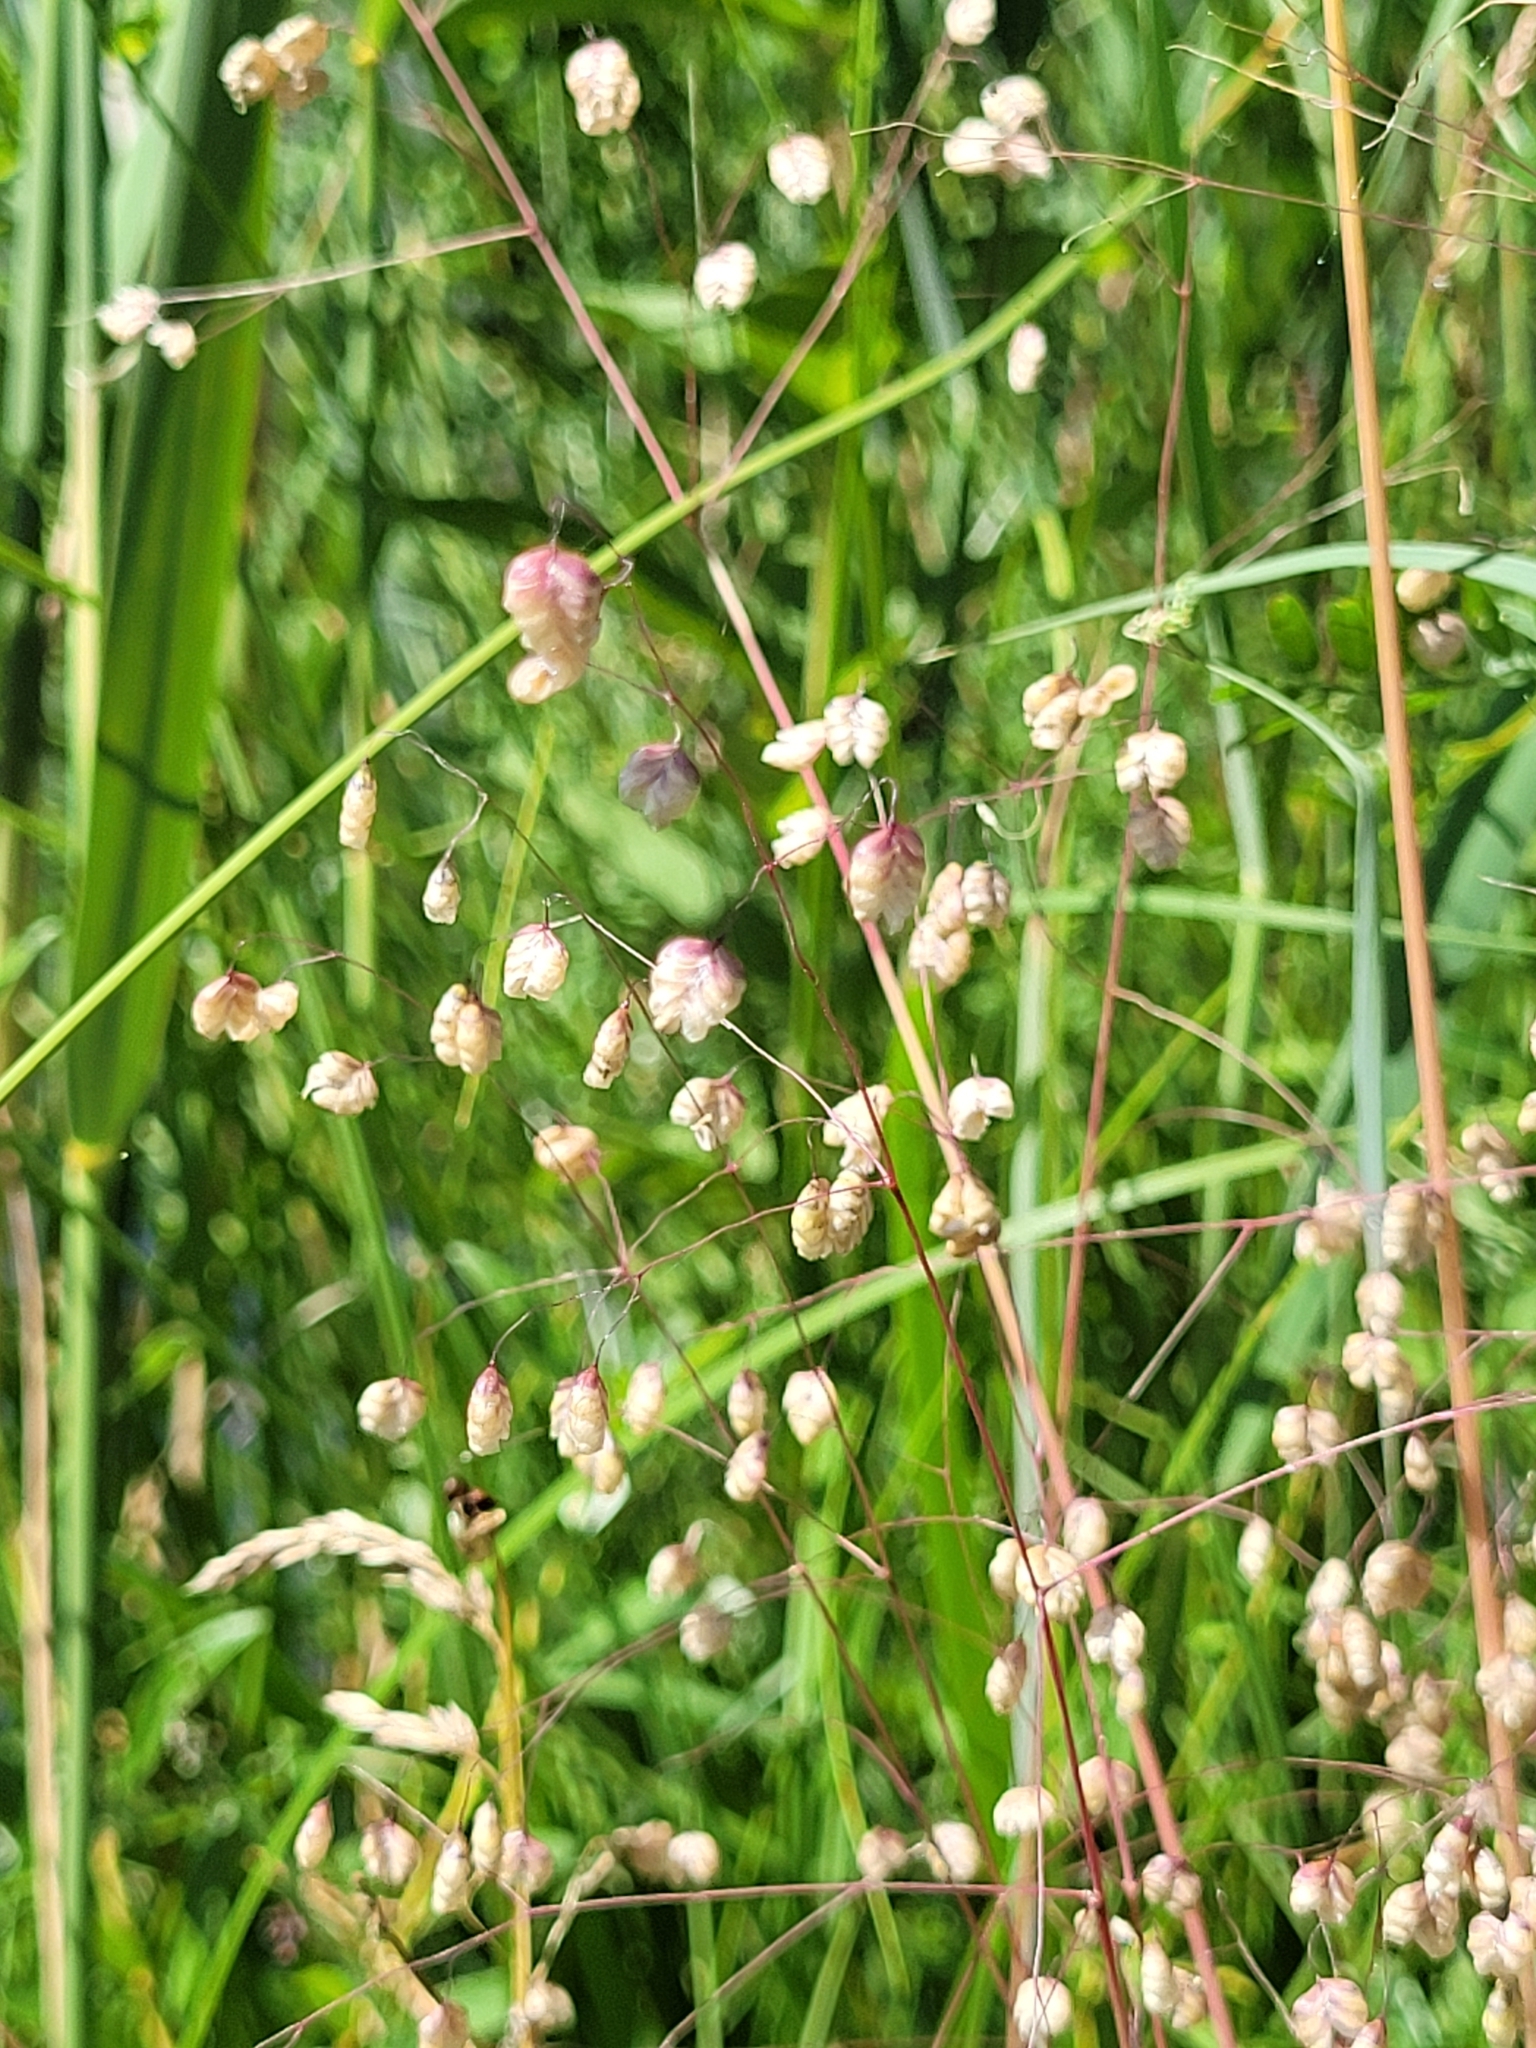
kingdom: Plantae
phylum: Tracheophyta
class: Liliopsida
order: Poales
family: Poaceae
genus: Briza
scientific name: Briza media
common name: Quaking grass
